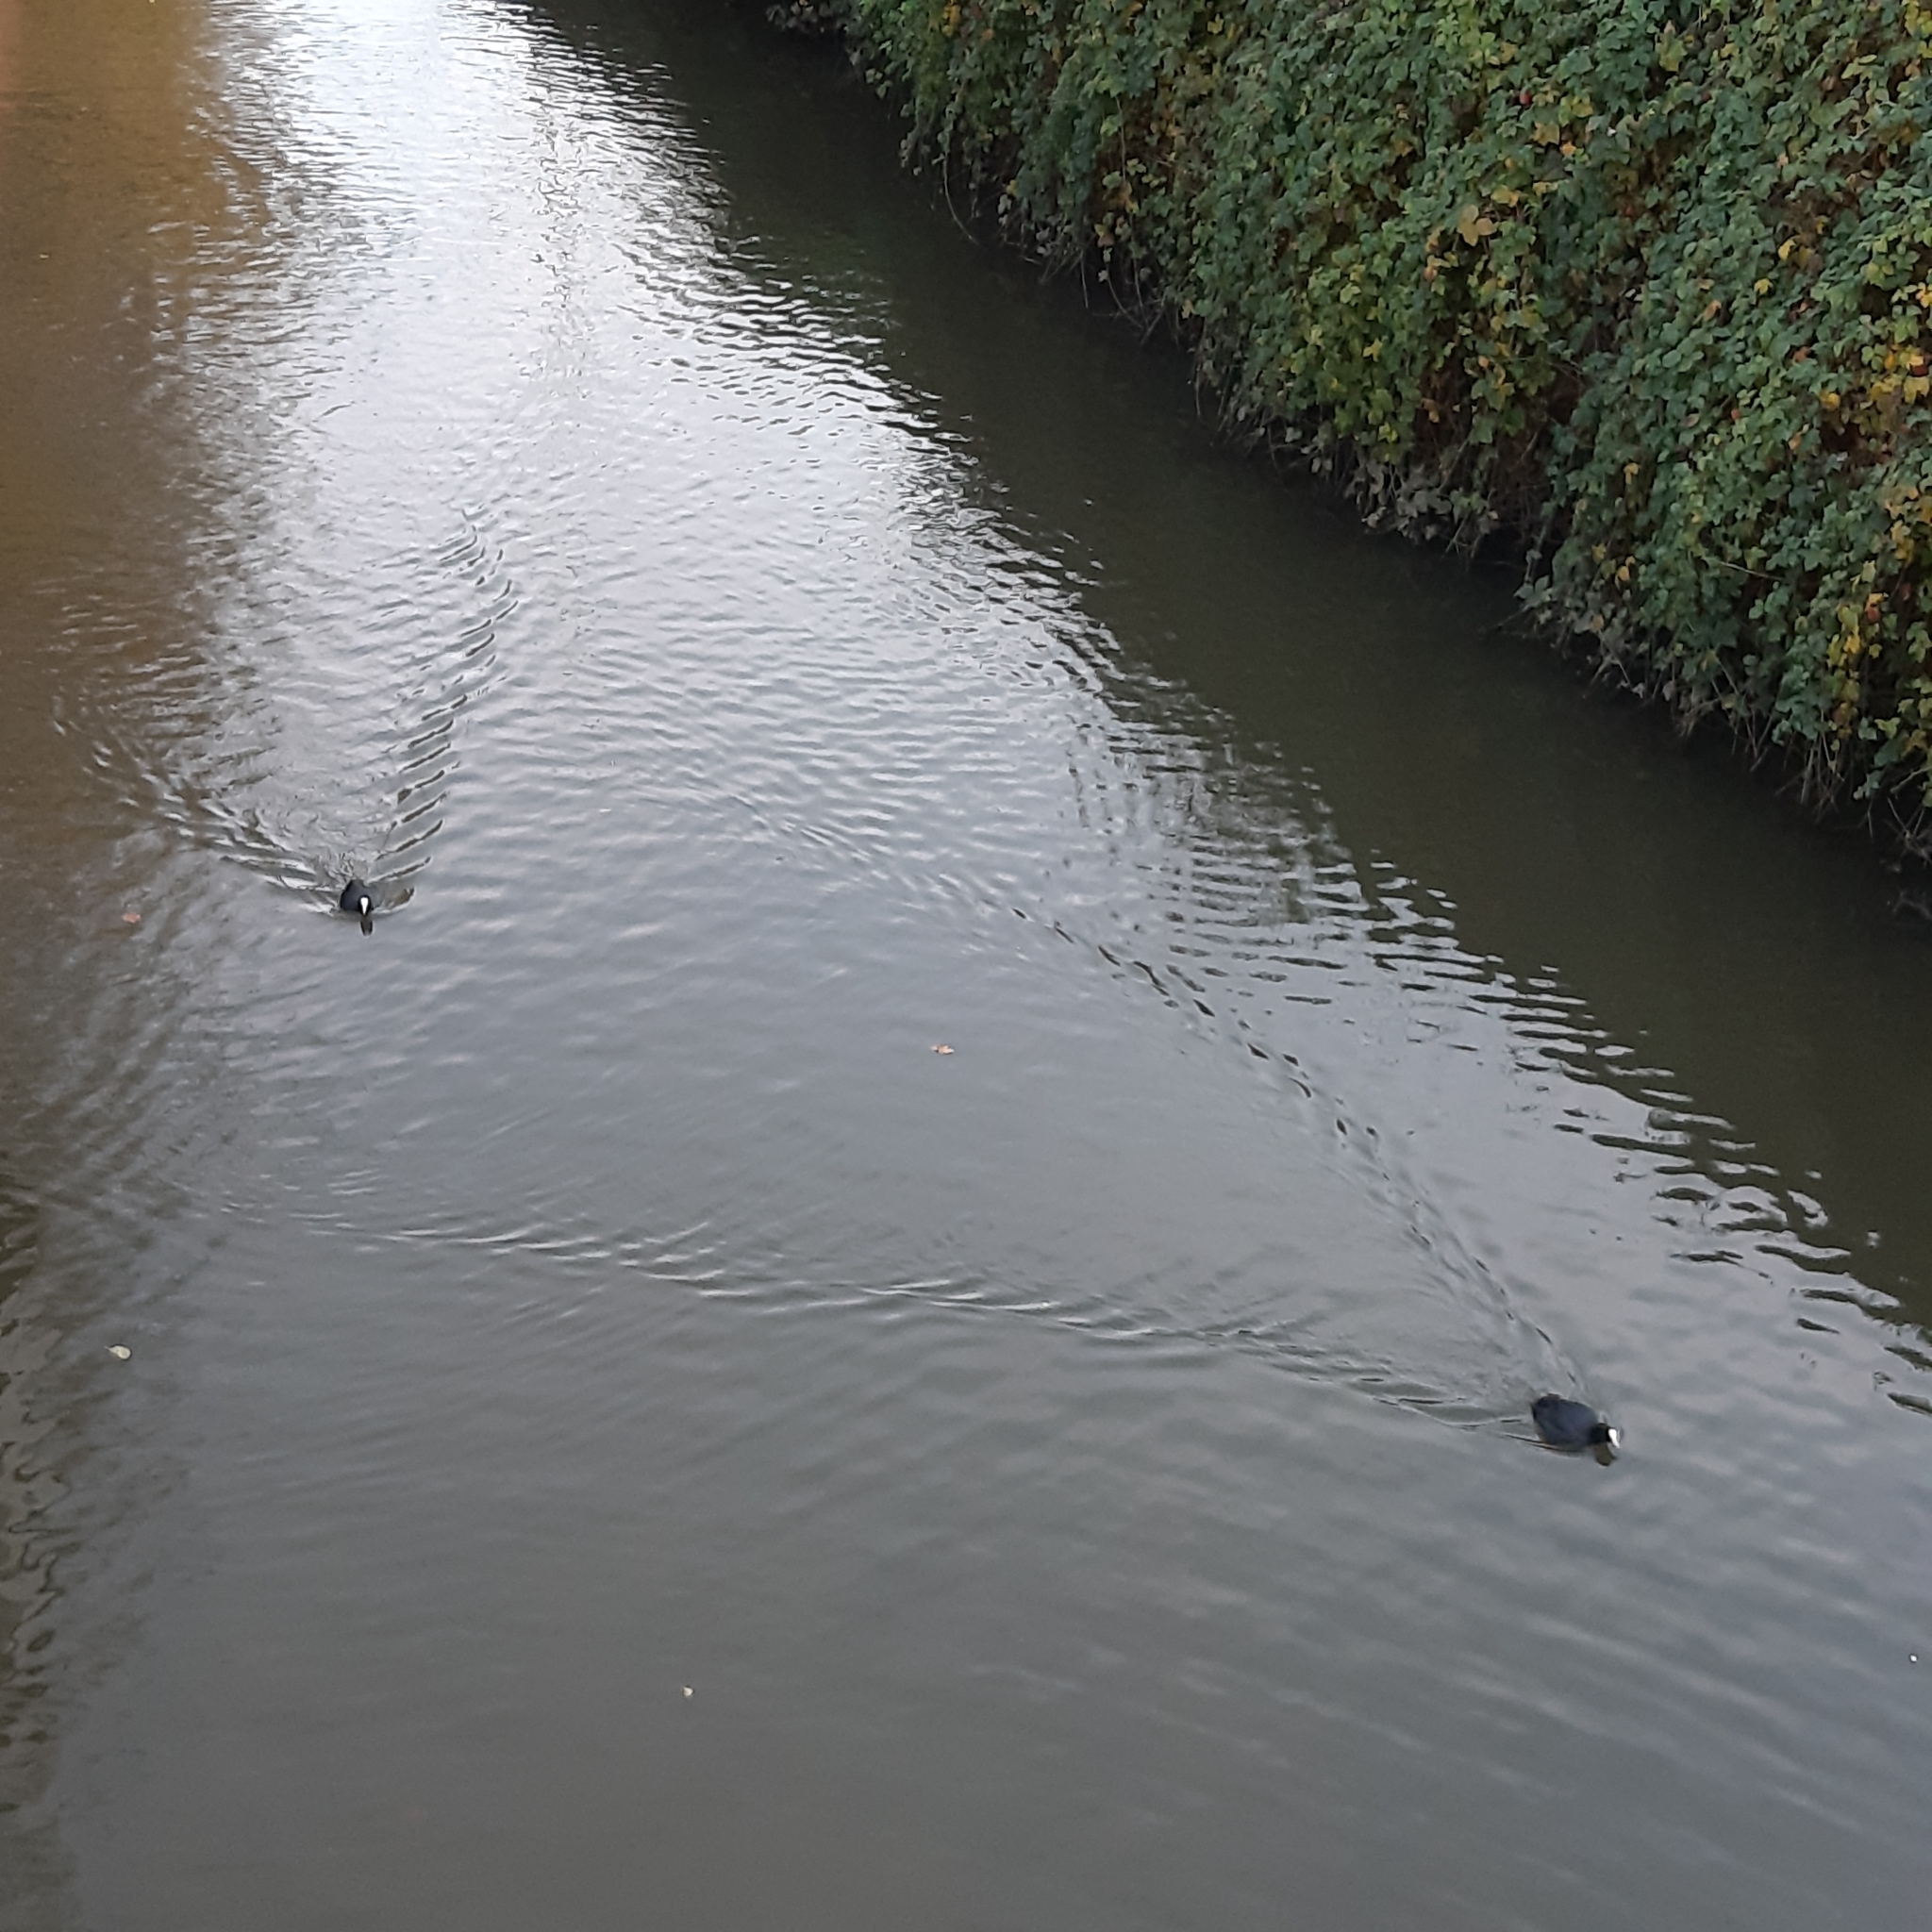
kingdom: Animalia
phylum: Chordata
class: Aves
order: Gruiformes
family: Rallidae
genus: Fulica
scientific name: Fulica atra
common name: Eurasian coot
